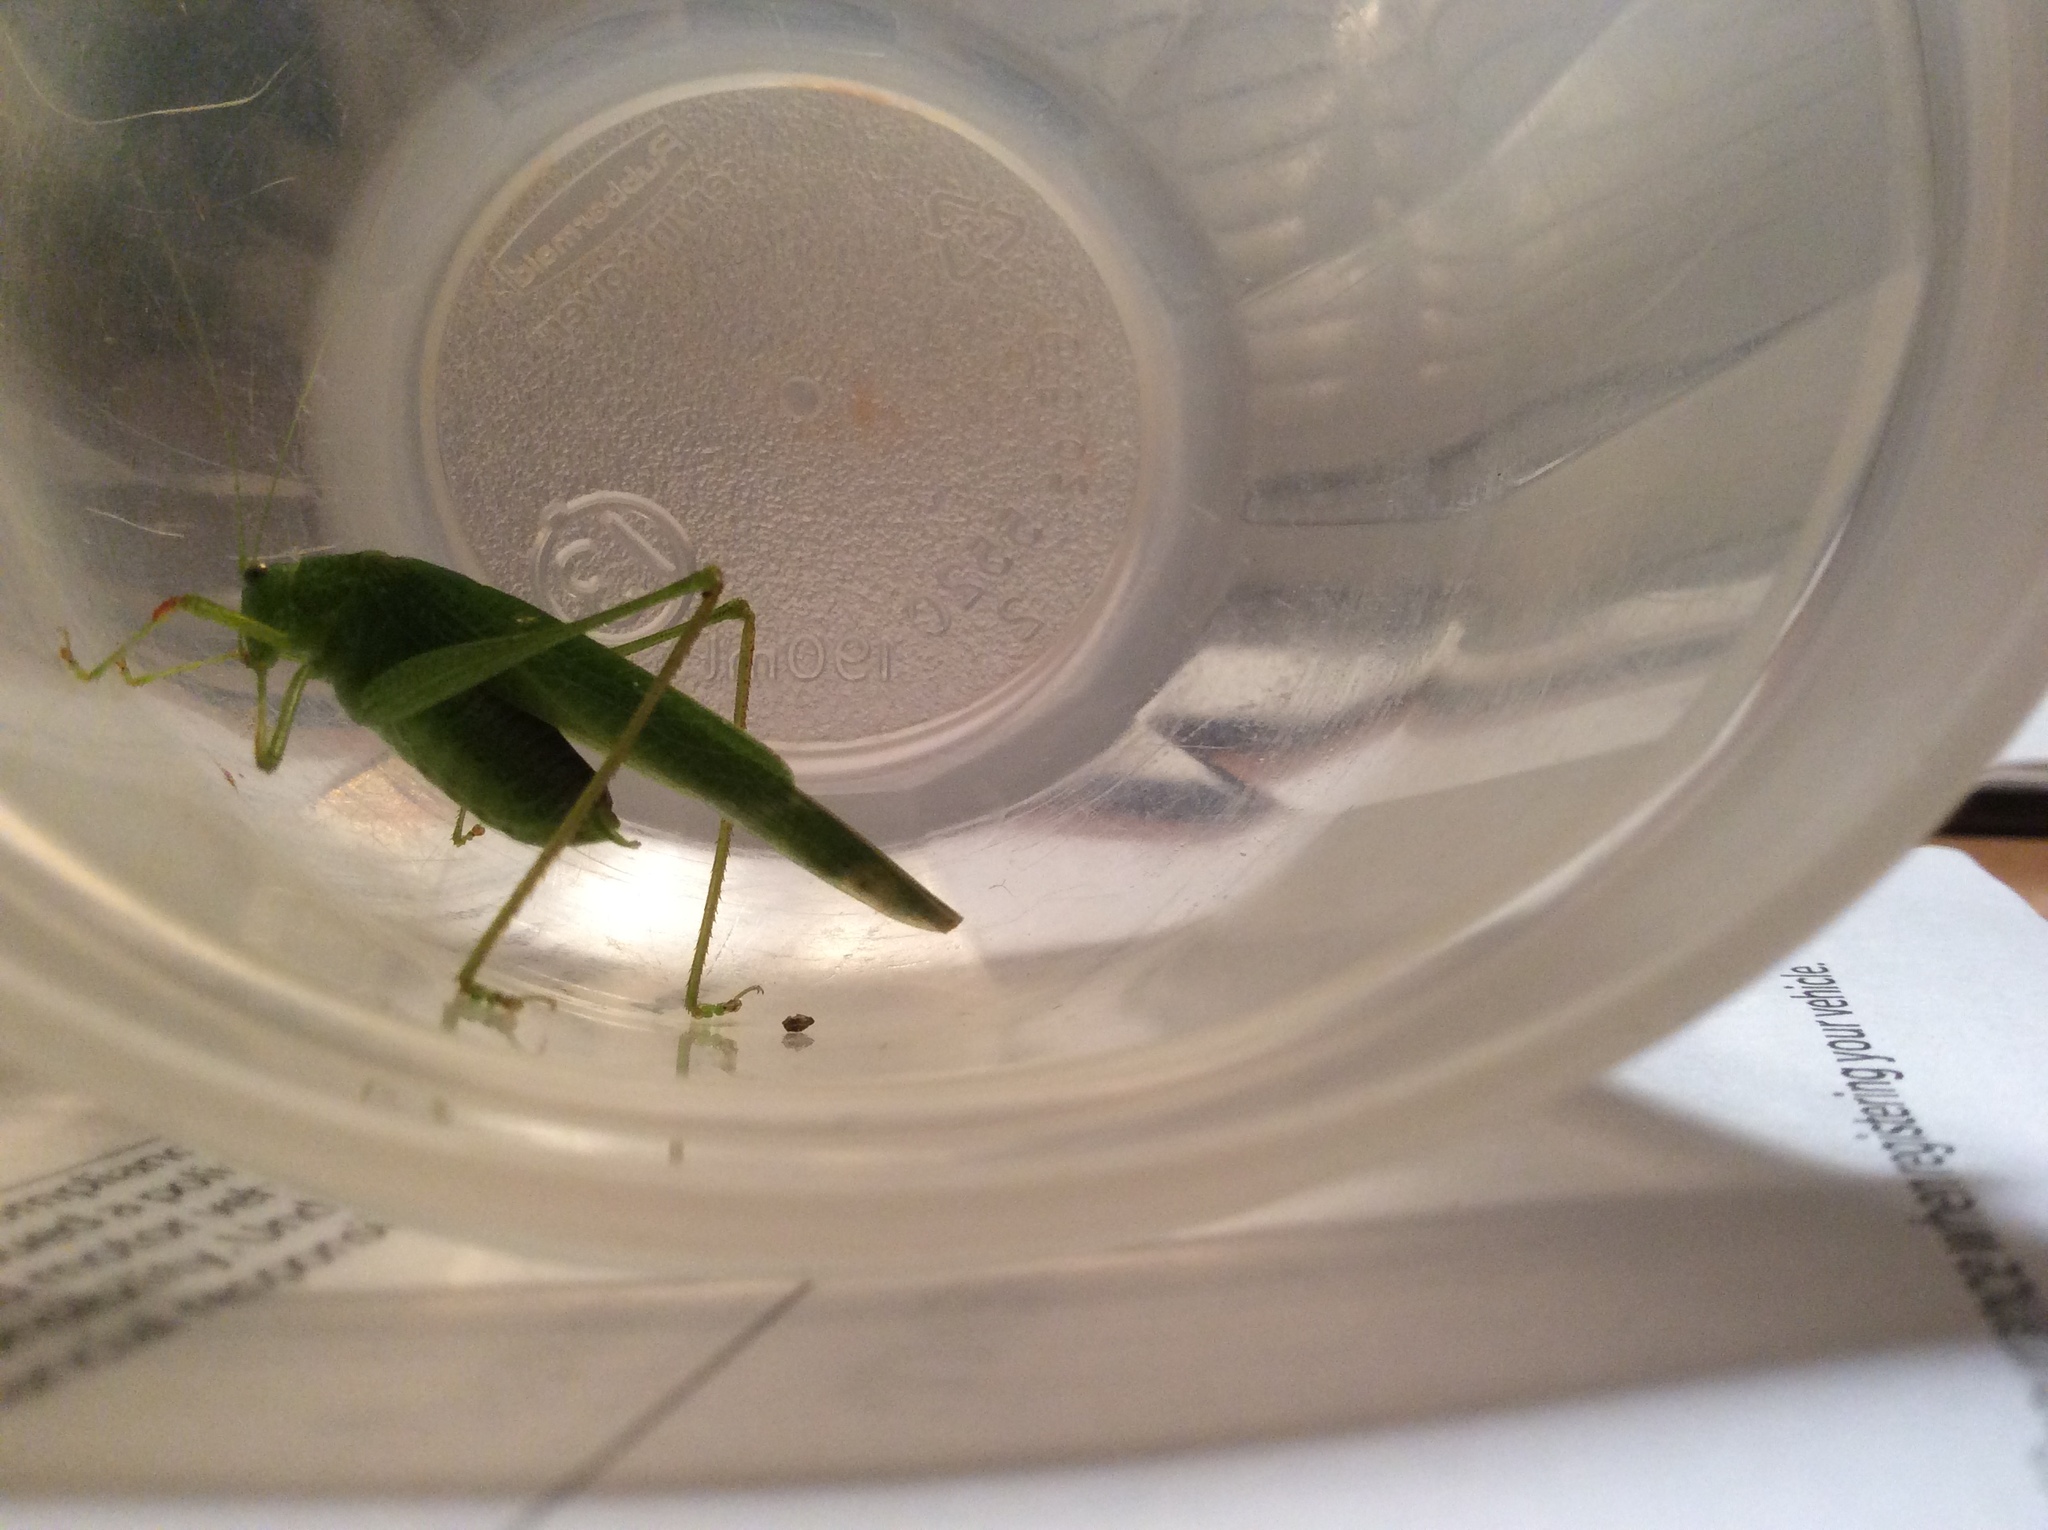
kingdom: Animalia
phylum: Arthropoda
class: Insecta
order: Orthoptera
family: Tettigoniidae
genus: Phaneroptera
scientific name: Phaneroptera nana
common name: Southern sickle bush-cricket
